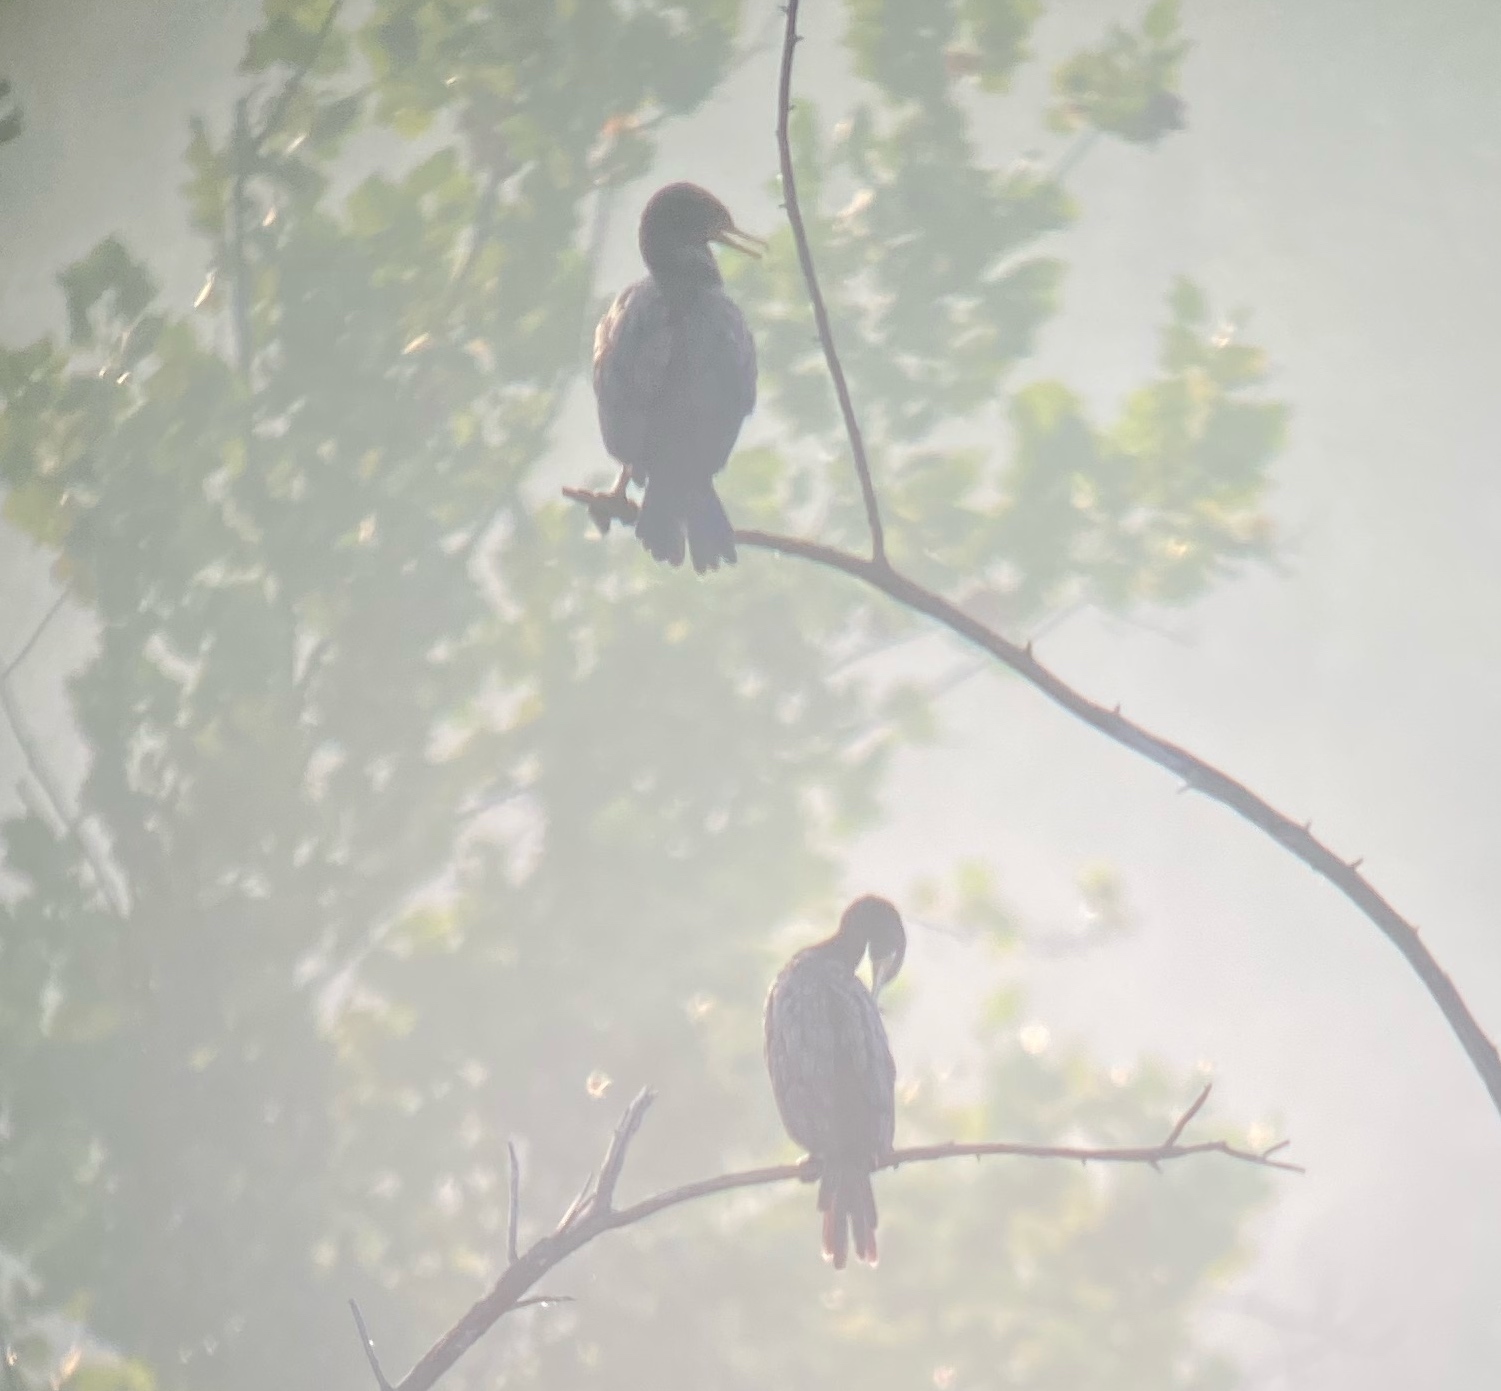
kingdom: Animalia
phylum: Chordata
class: Aves
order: Suliformes
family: Phalacrocoracidae
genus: Phalacrocorax
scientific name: Phalacrocorax brasilianus
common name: Neotropic cormorant
